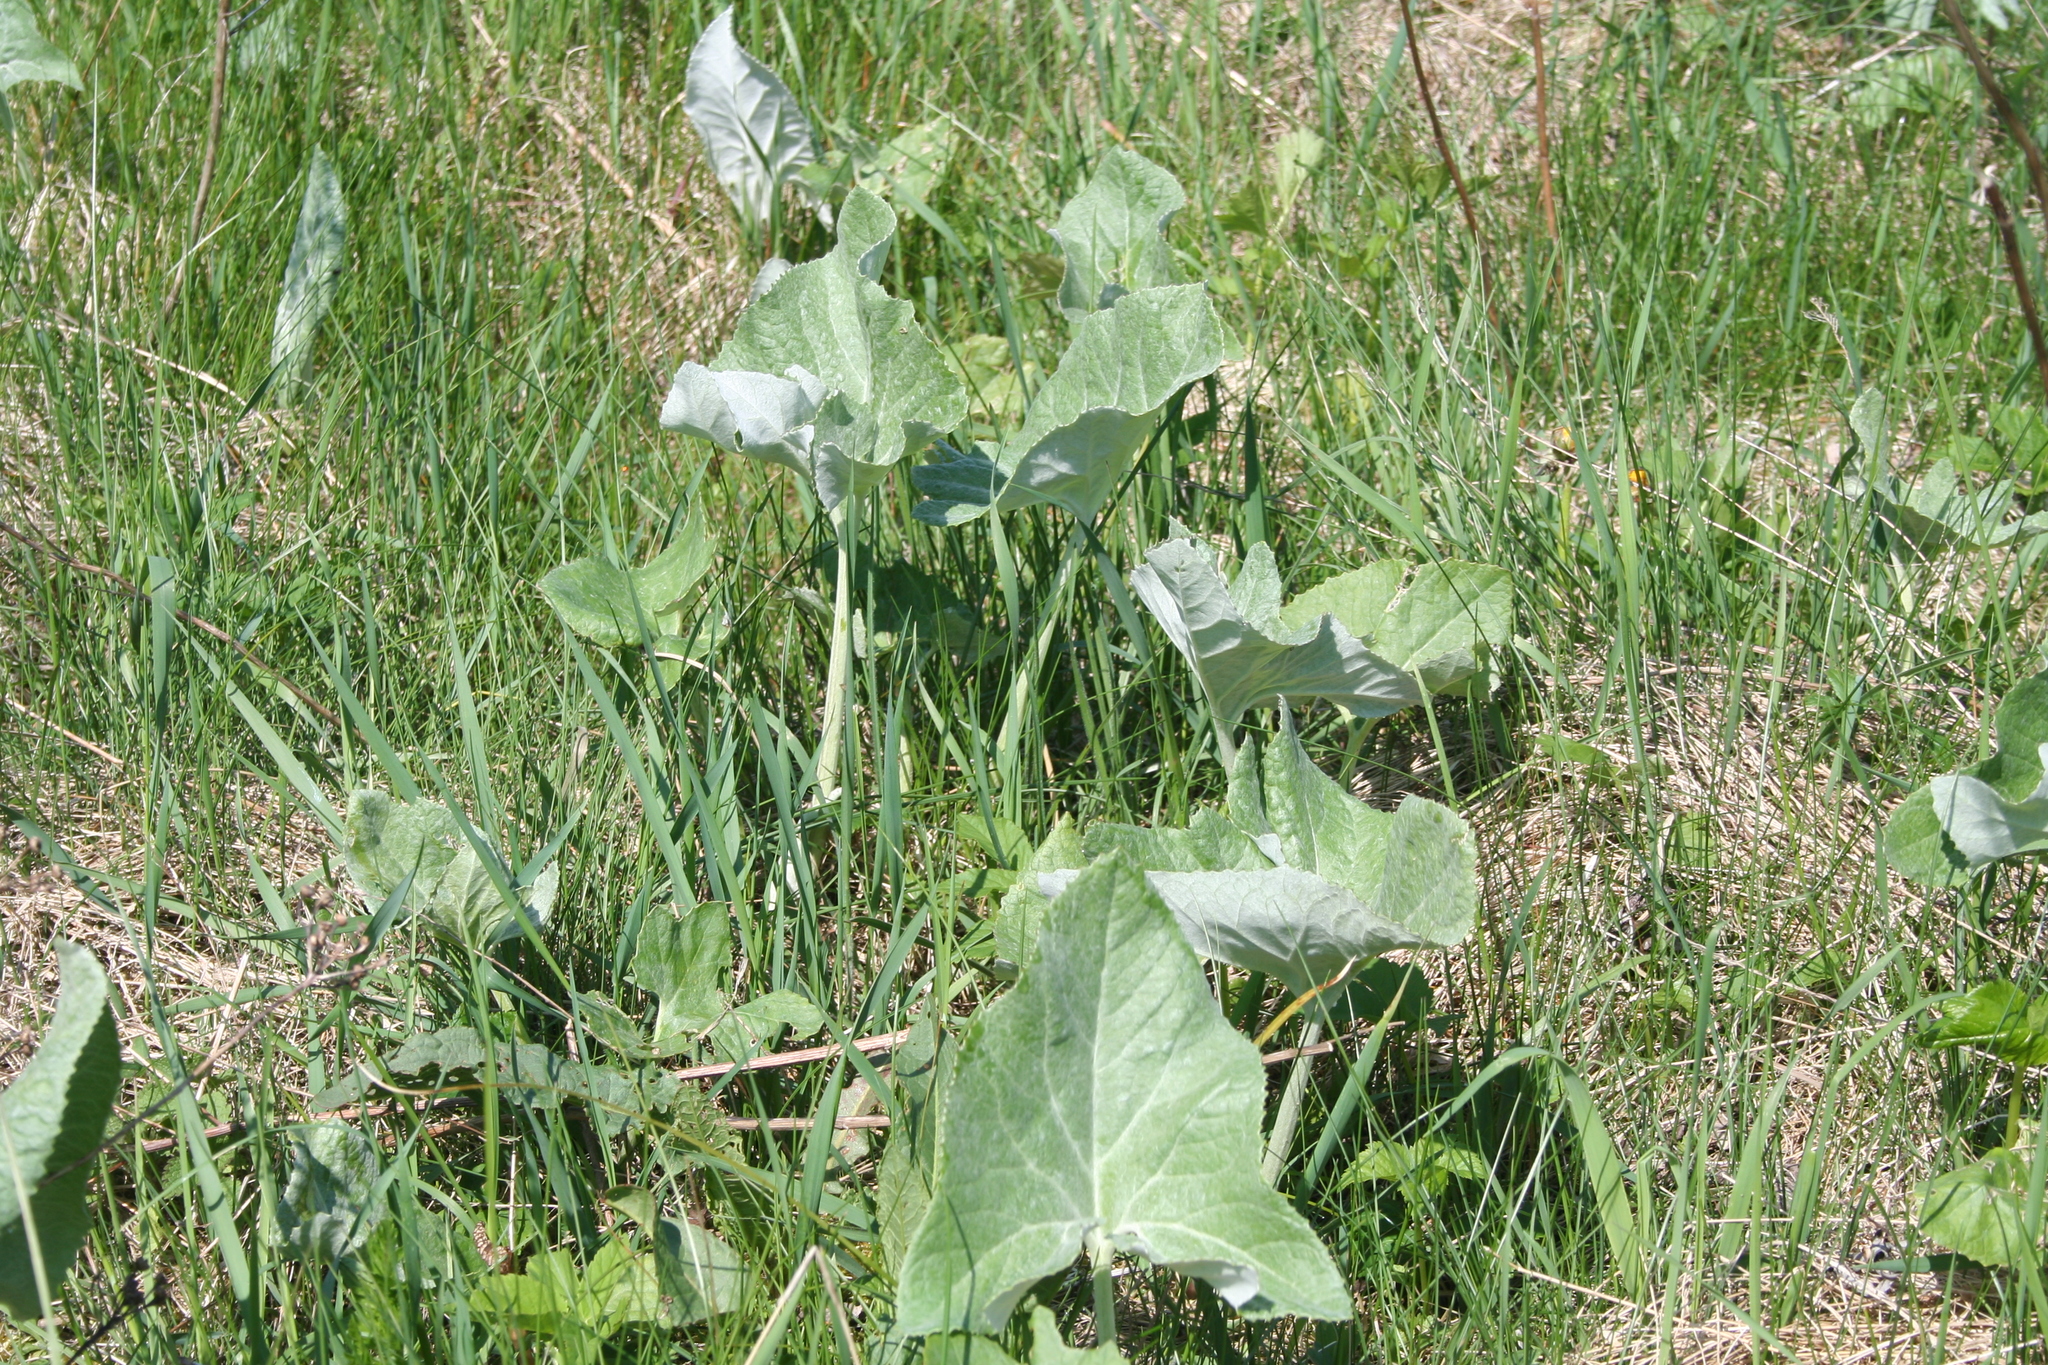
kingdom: Plantae
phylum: Tracheophyta
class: Magnoliopsida
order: Asterales
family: Asteraceae
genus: Petasites
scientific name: Petasites spurius
